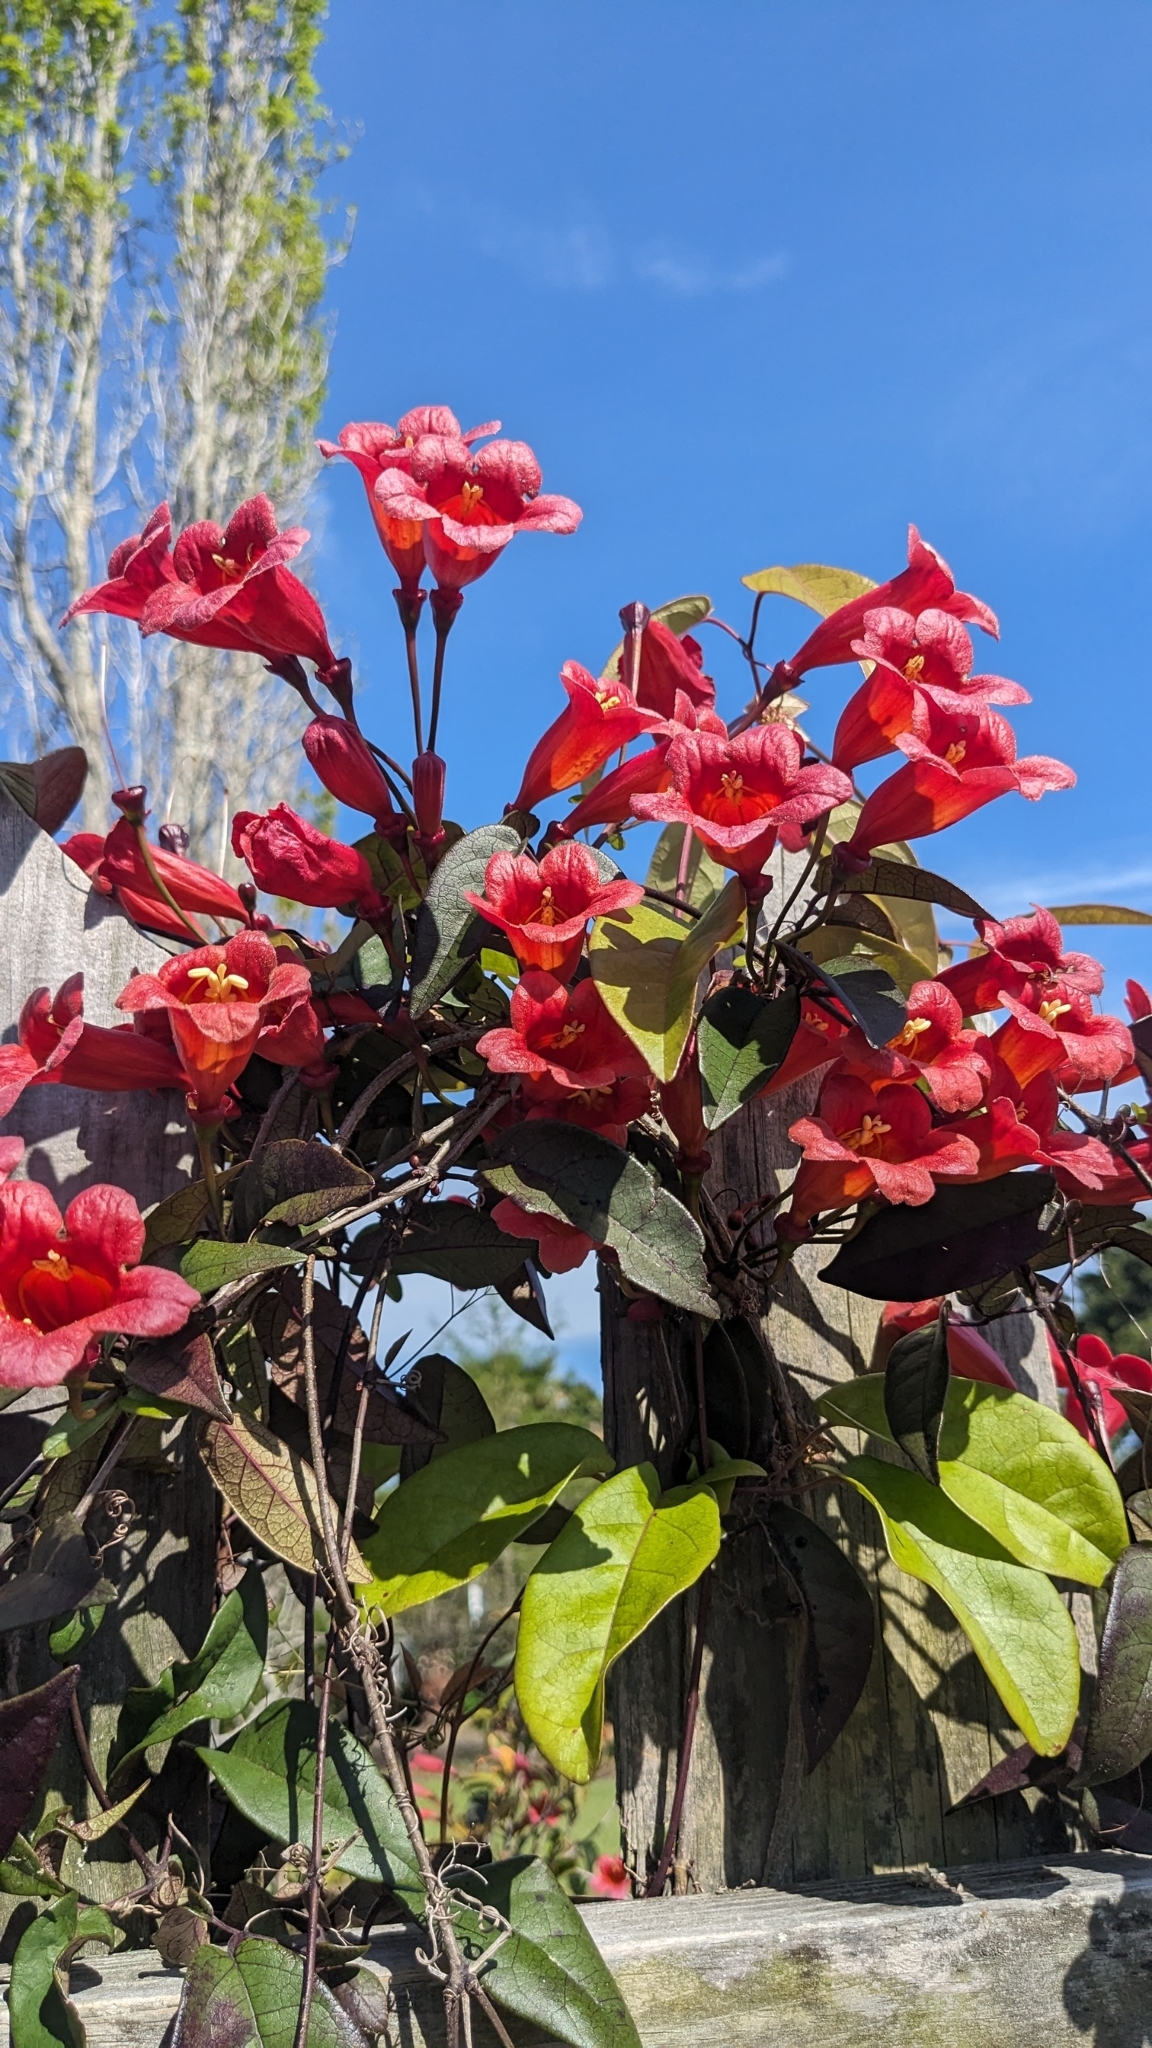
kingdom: Plantae
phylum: Tracheophyta
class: Magnoliopsida
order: Lamiales
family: Bignoniaceae
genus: Bignonia
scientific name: Bignonia capreolata
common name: Crossvine
